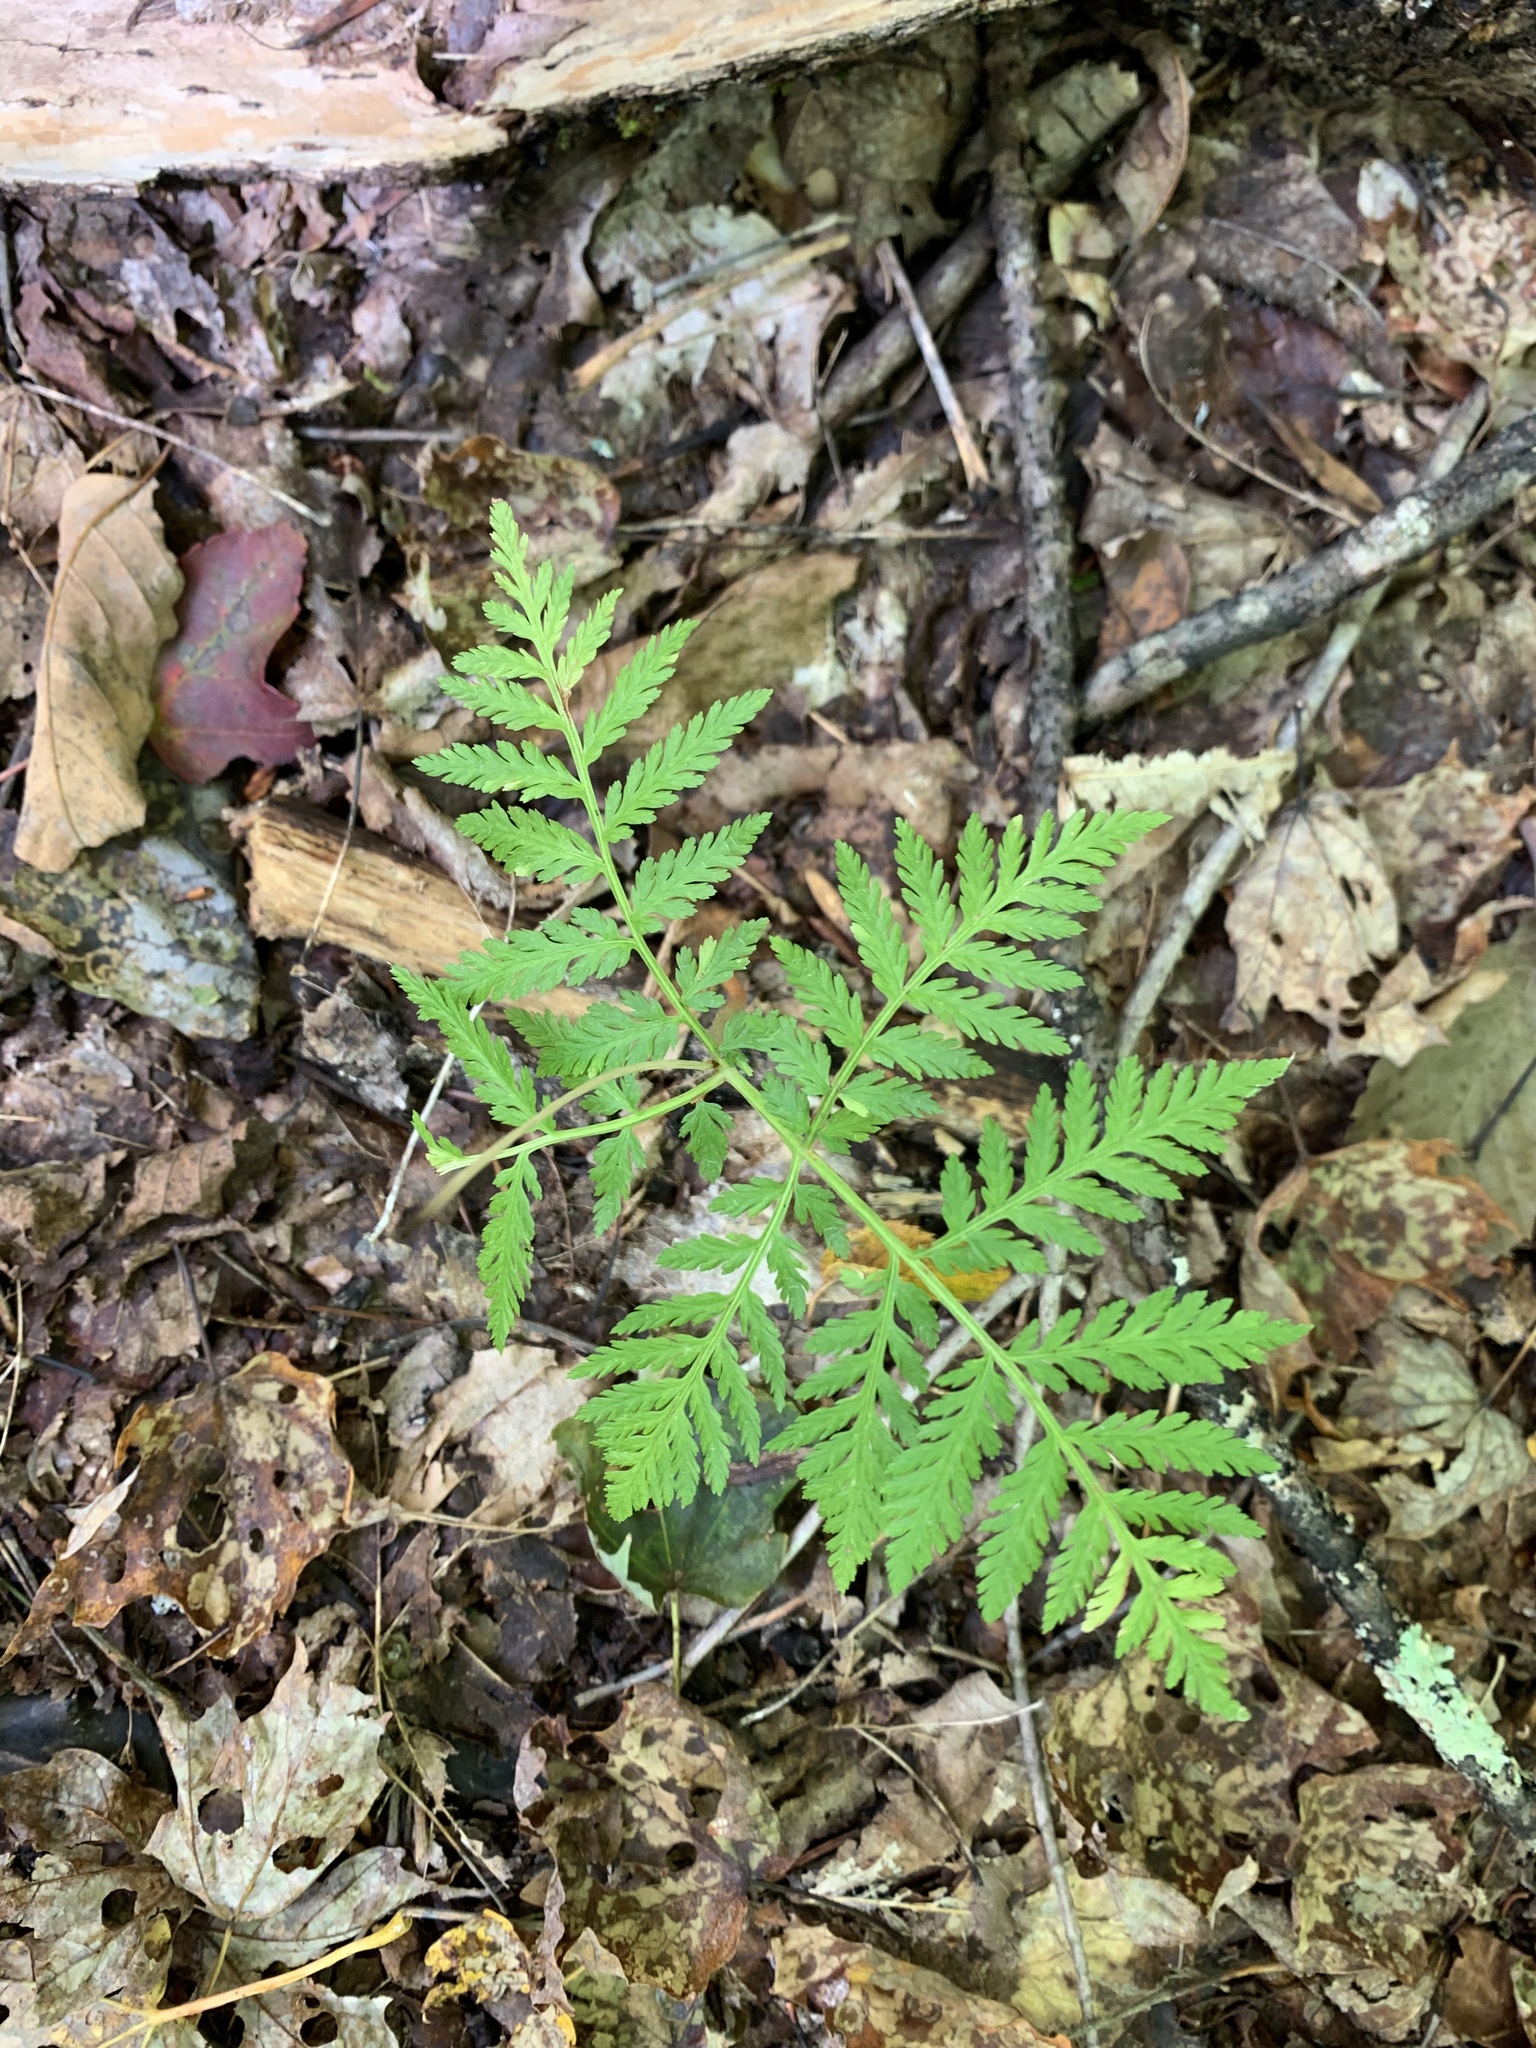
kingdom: Plantae
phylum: Tracheophyta
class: Polypodiopsida
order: Ophioglossales
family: Ophioglossaceae
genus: Botrypus
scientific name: Botrypus virginianus
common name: Common grapefern
